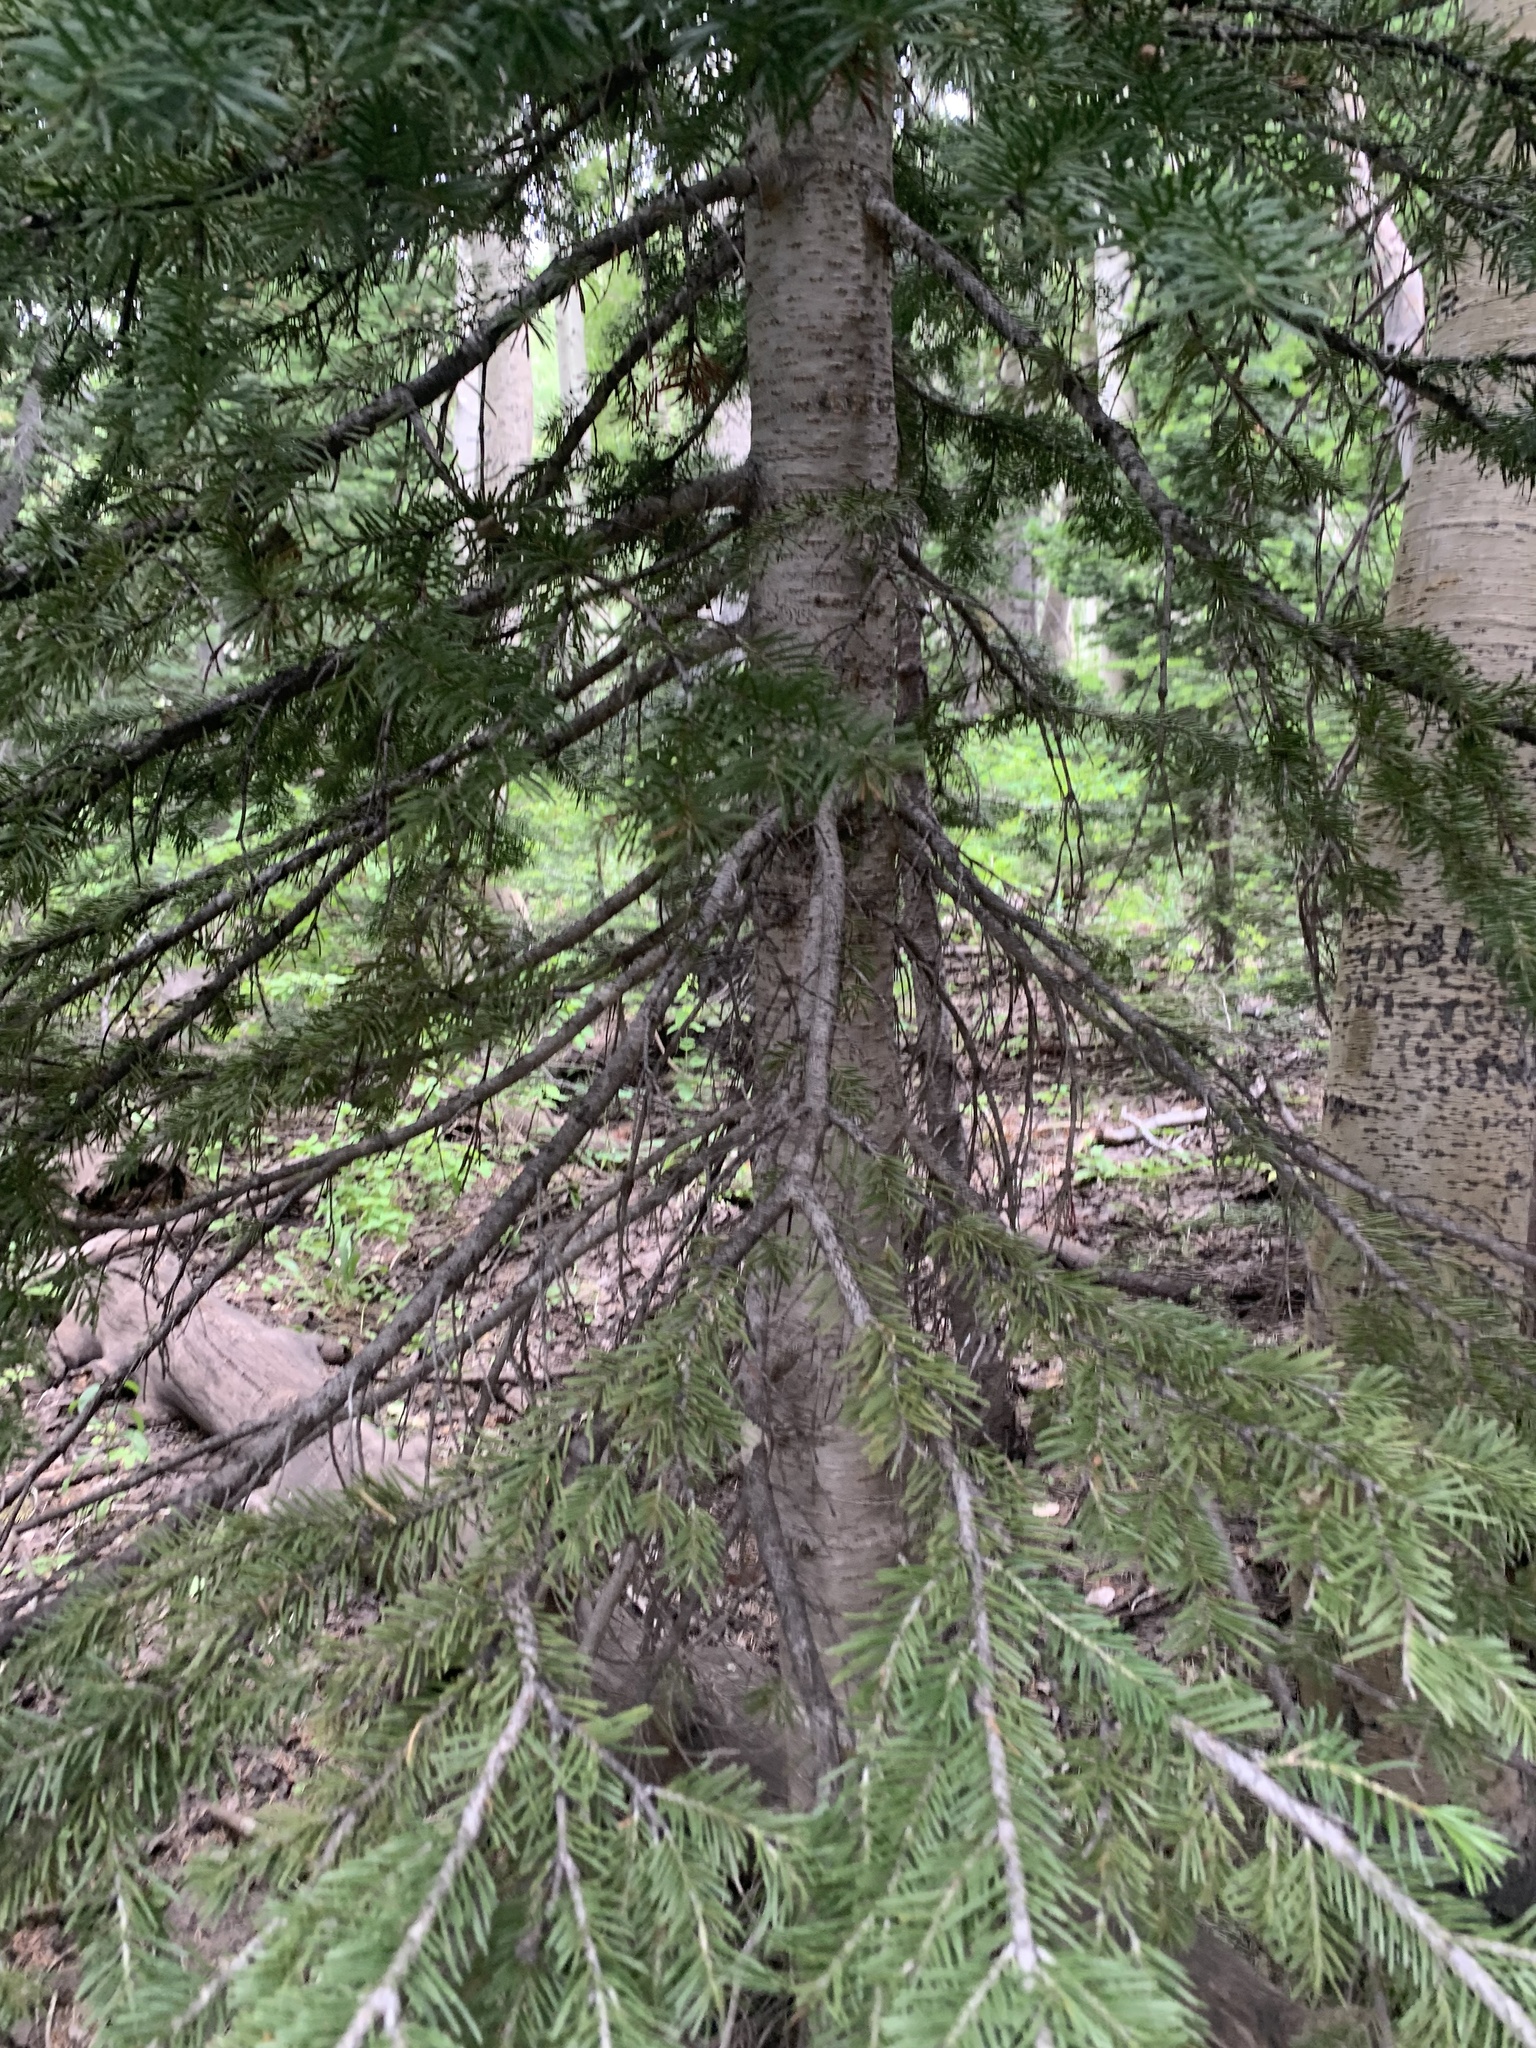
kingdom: Plantae
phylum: Tracheophyta
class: Pinopsida
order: Pinales
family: Pinaceae
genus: Pseudotsuga
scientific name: Pseudotsuga menziesii
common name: Douglas fir
